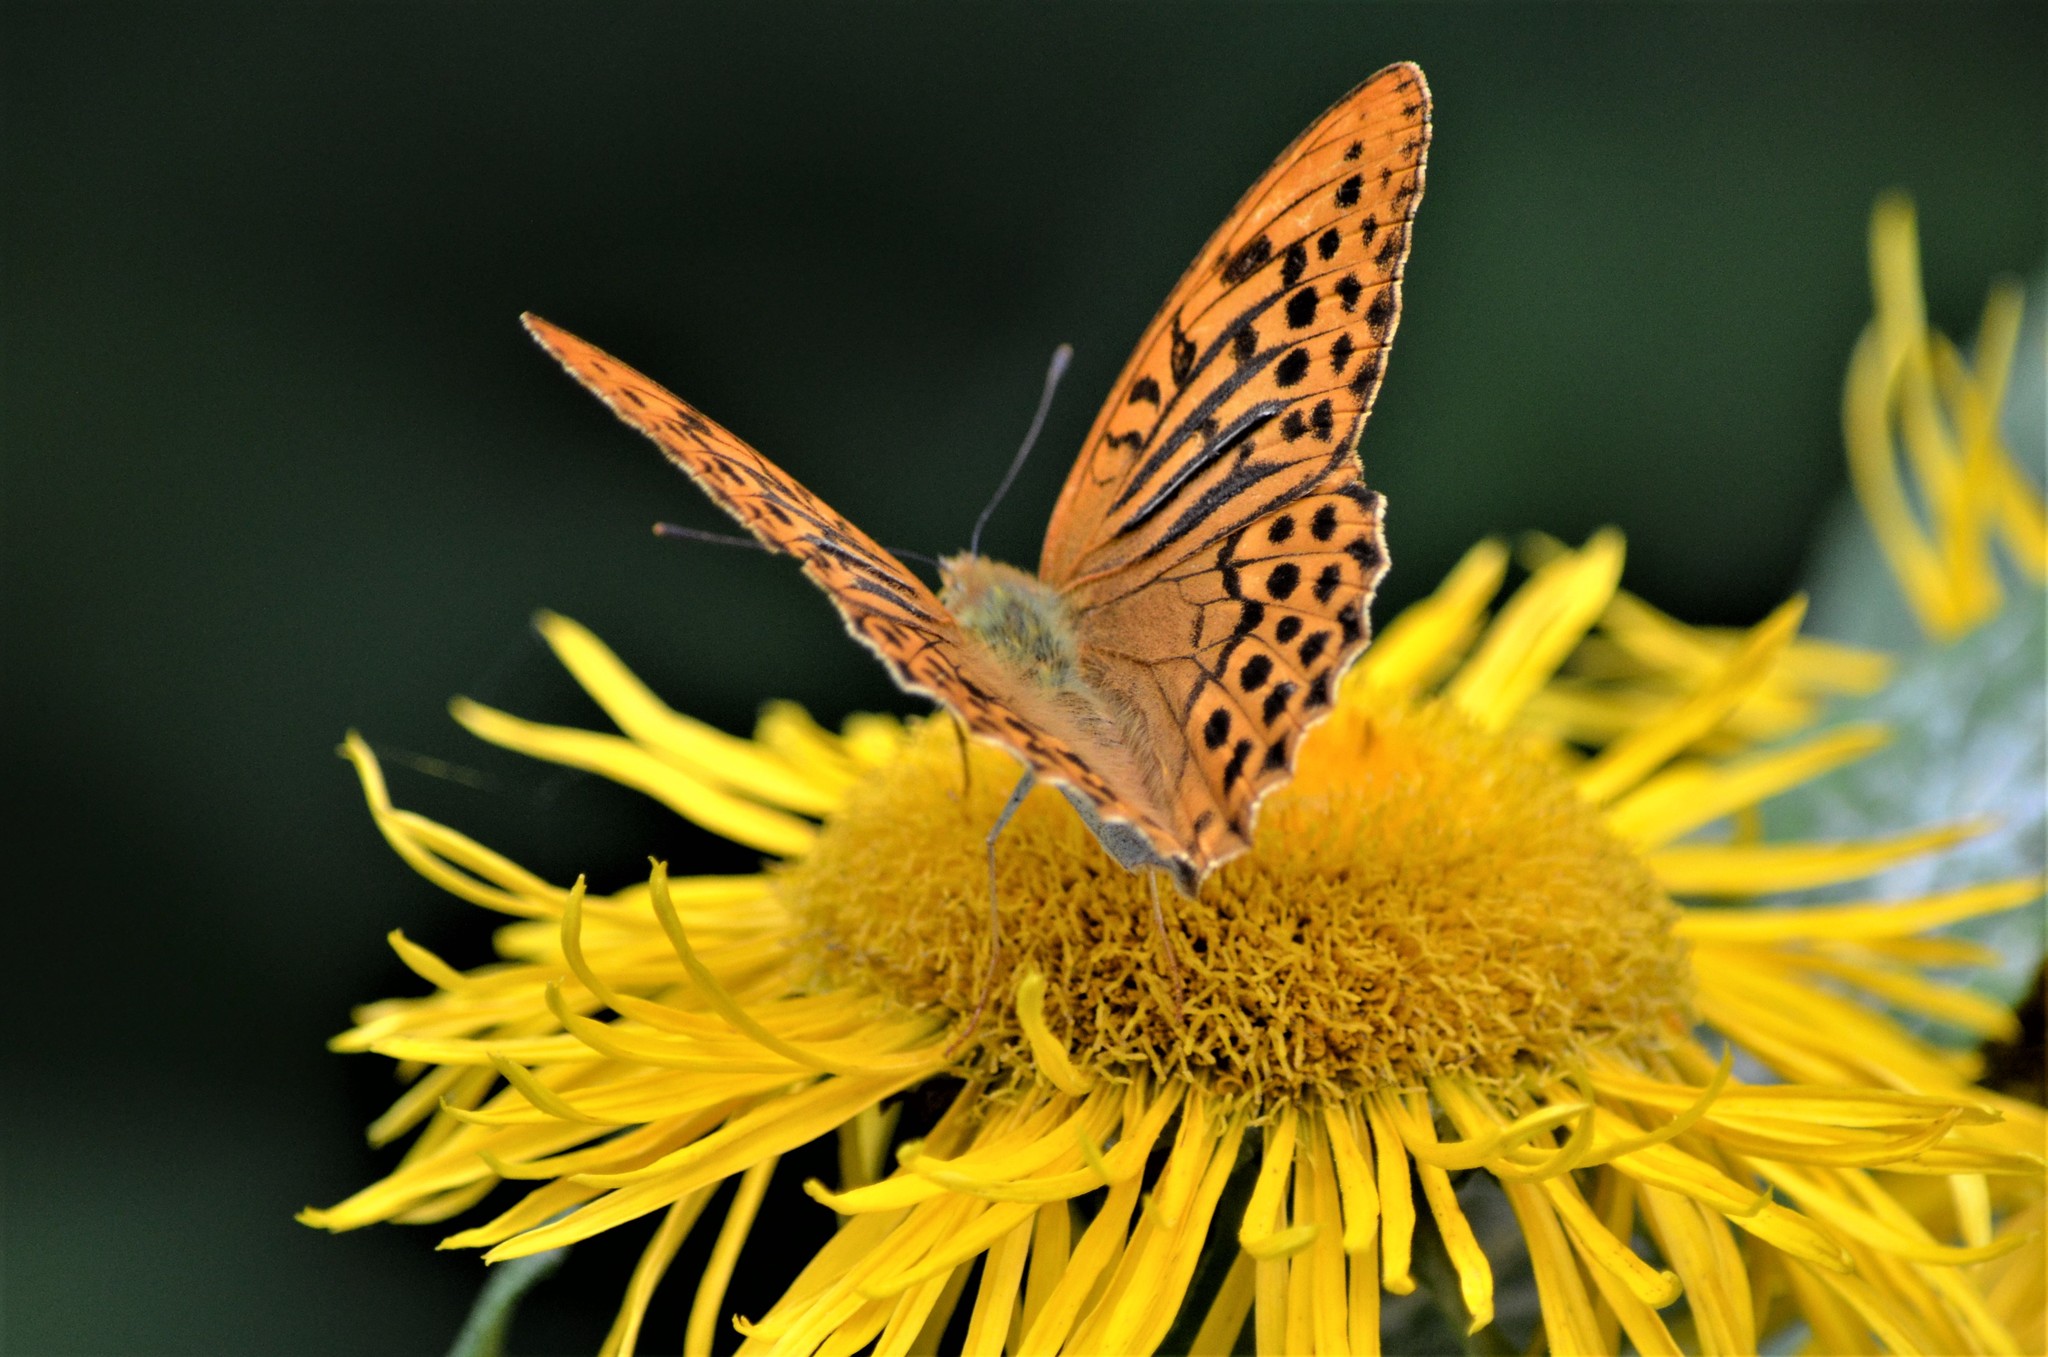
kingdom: Animalia
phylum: Arthropoda
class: Insecta
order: Lepidoptera
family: Nymphalidae
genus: Argynnis
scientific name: Argynnis paphia
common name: Silver-washed fritillary
